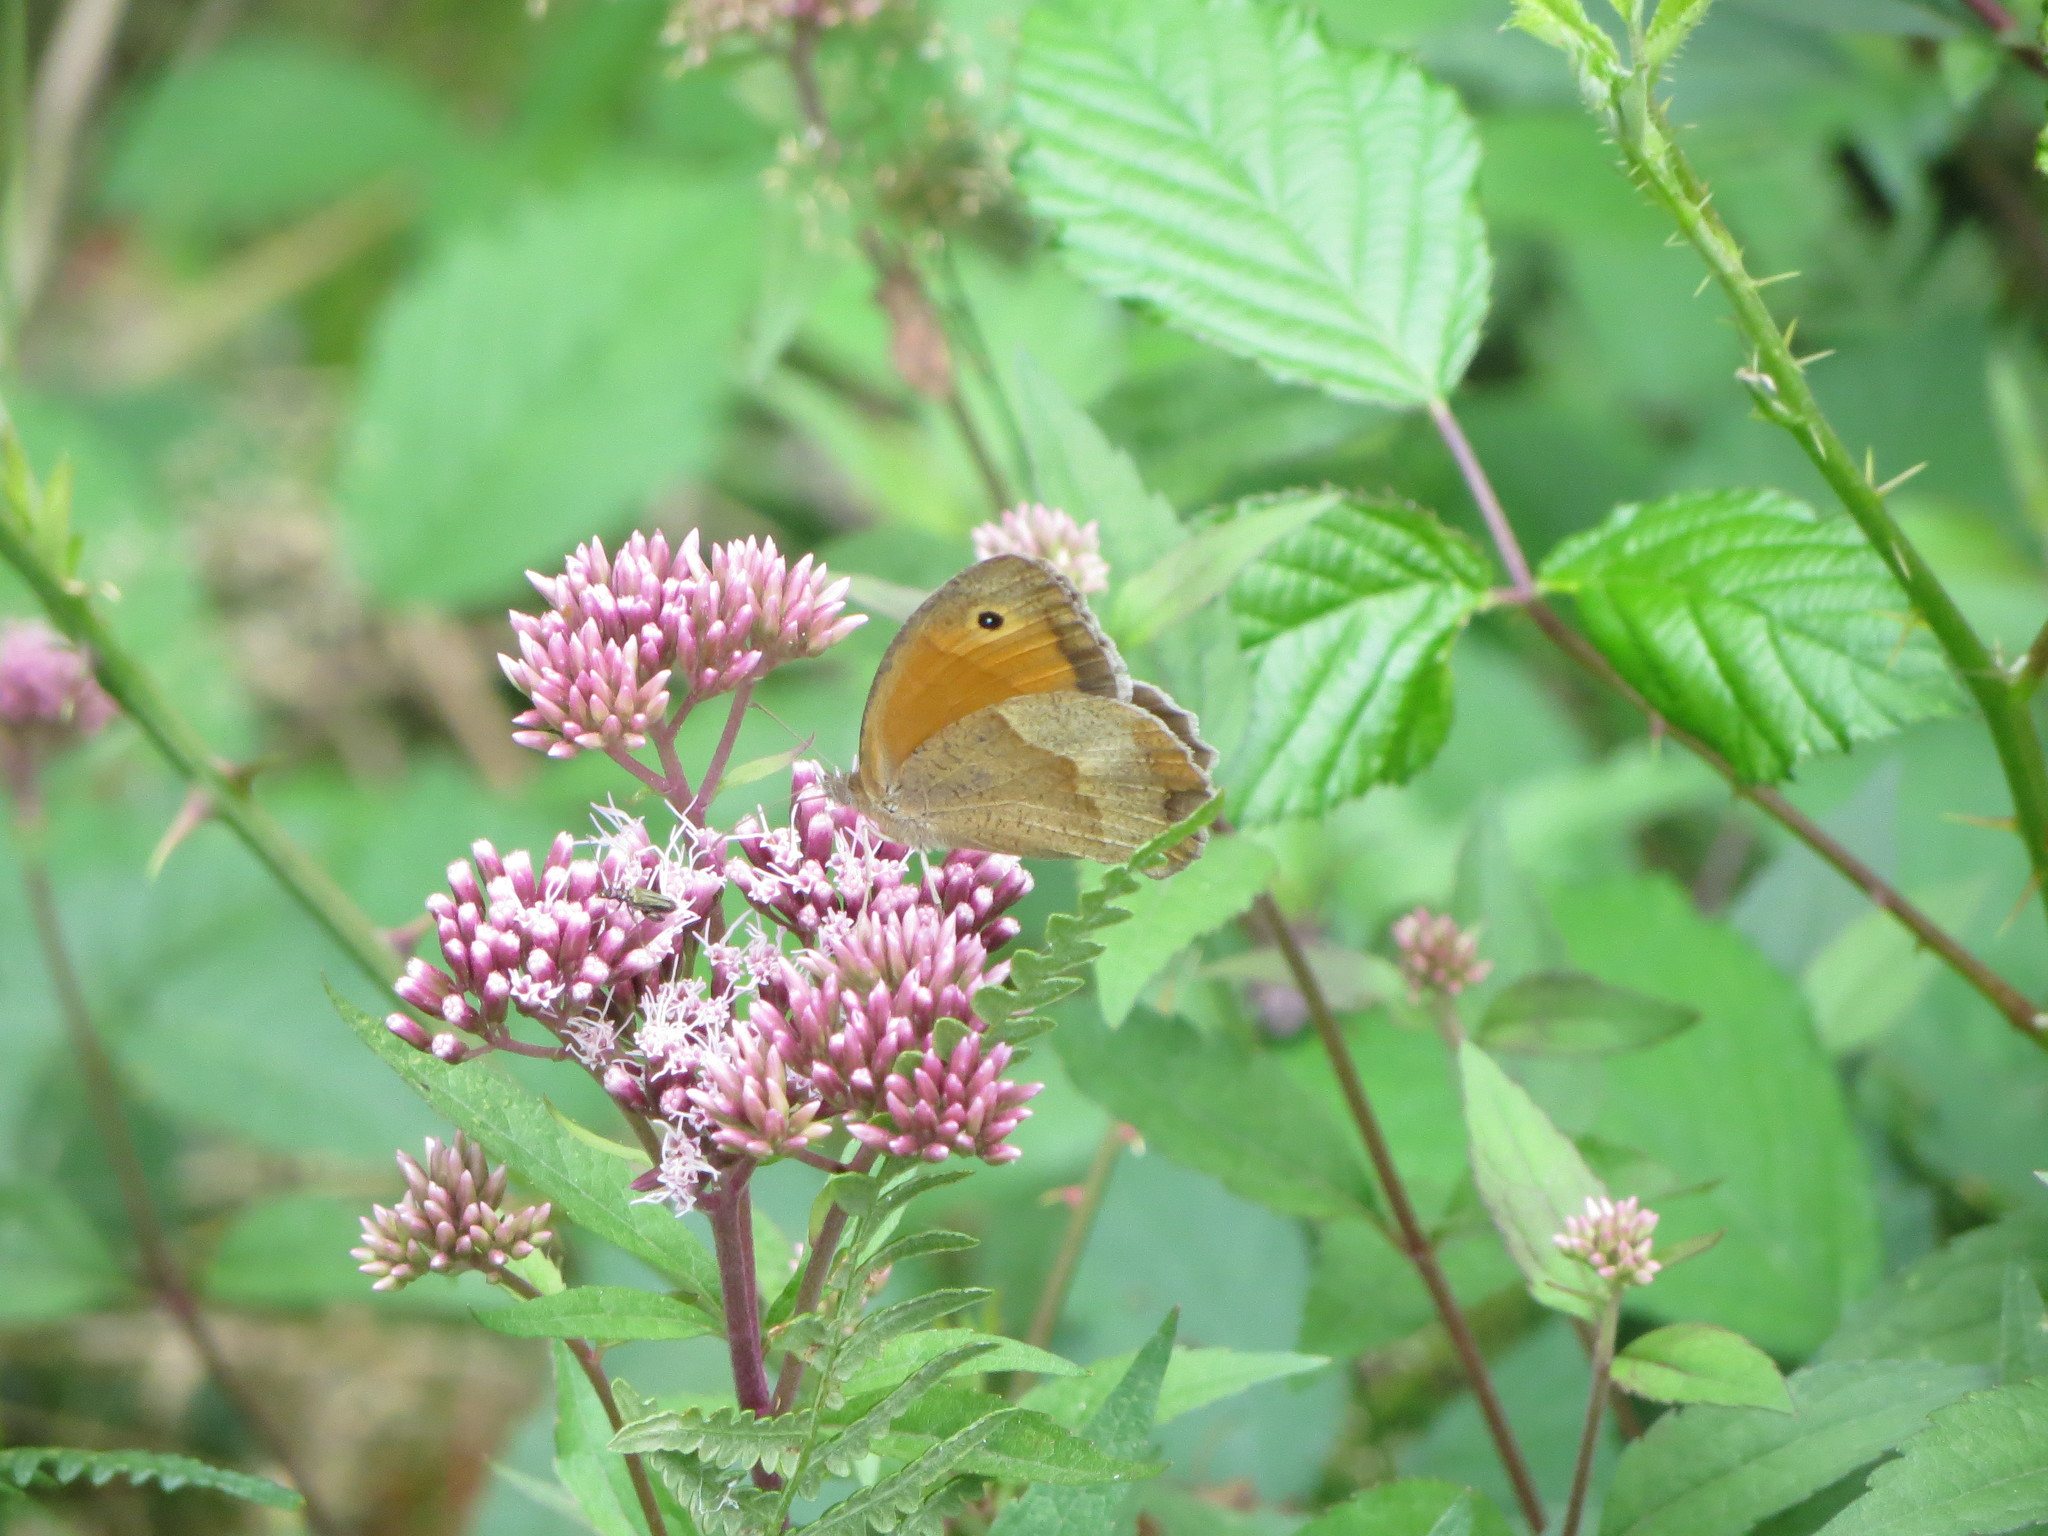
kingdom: Animalia
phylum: Arthropoda
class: Insecta
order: Lepidoptera
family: Nymphalidae
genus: Maniola
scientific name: Maniola jurtina
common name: Meadow brown
